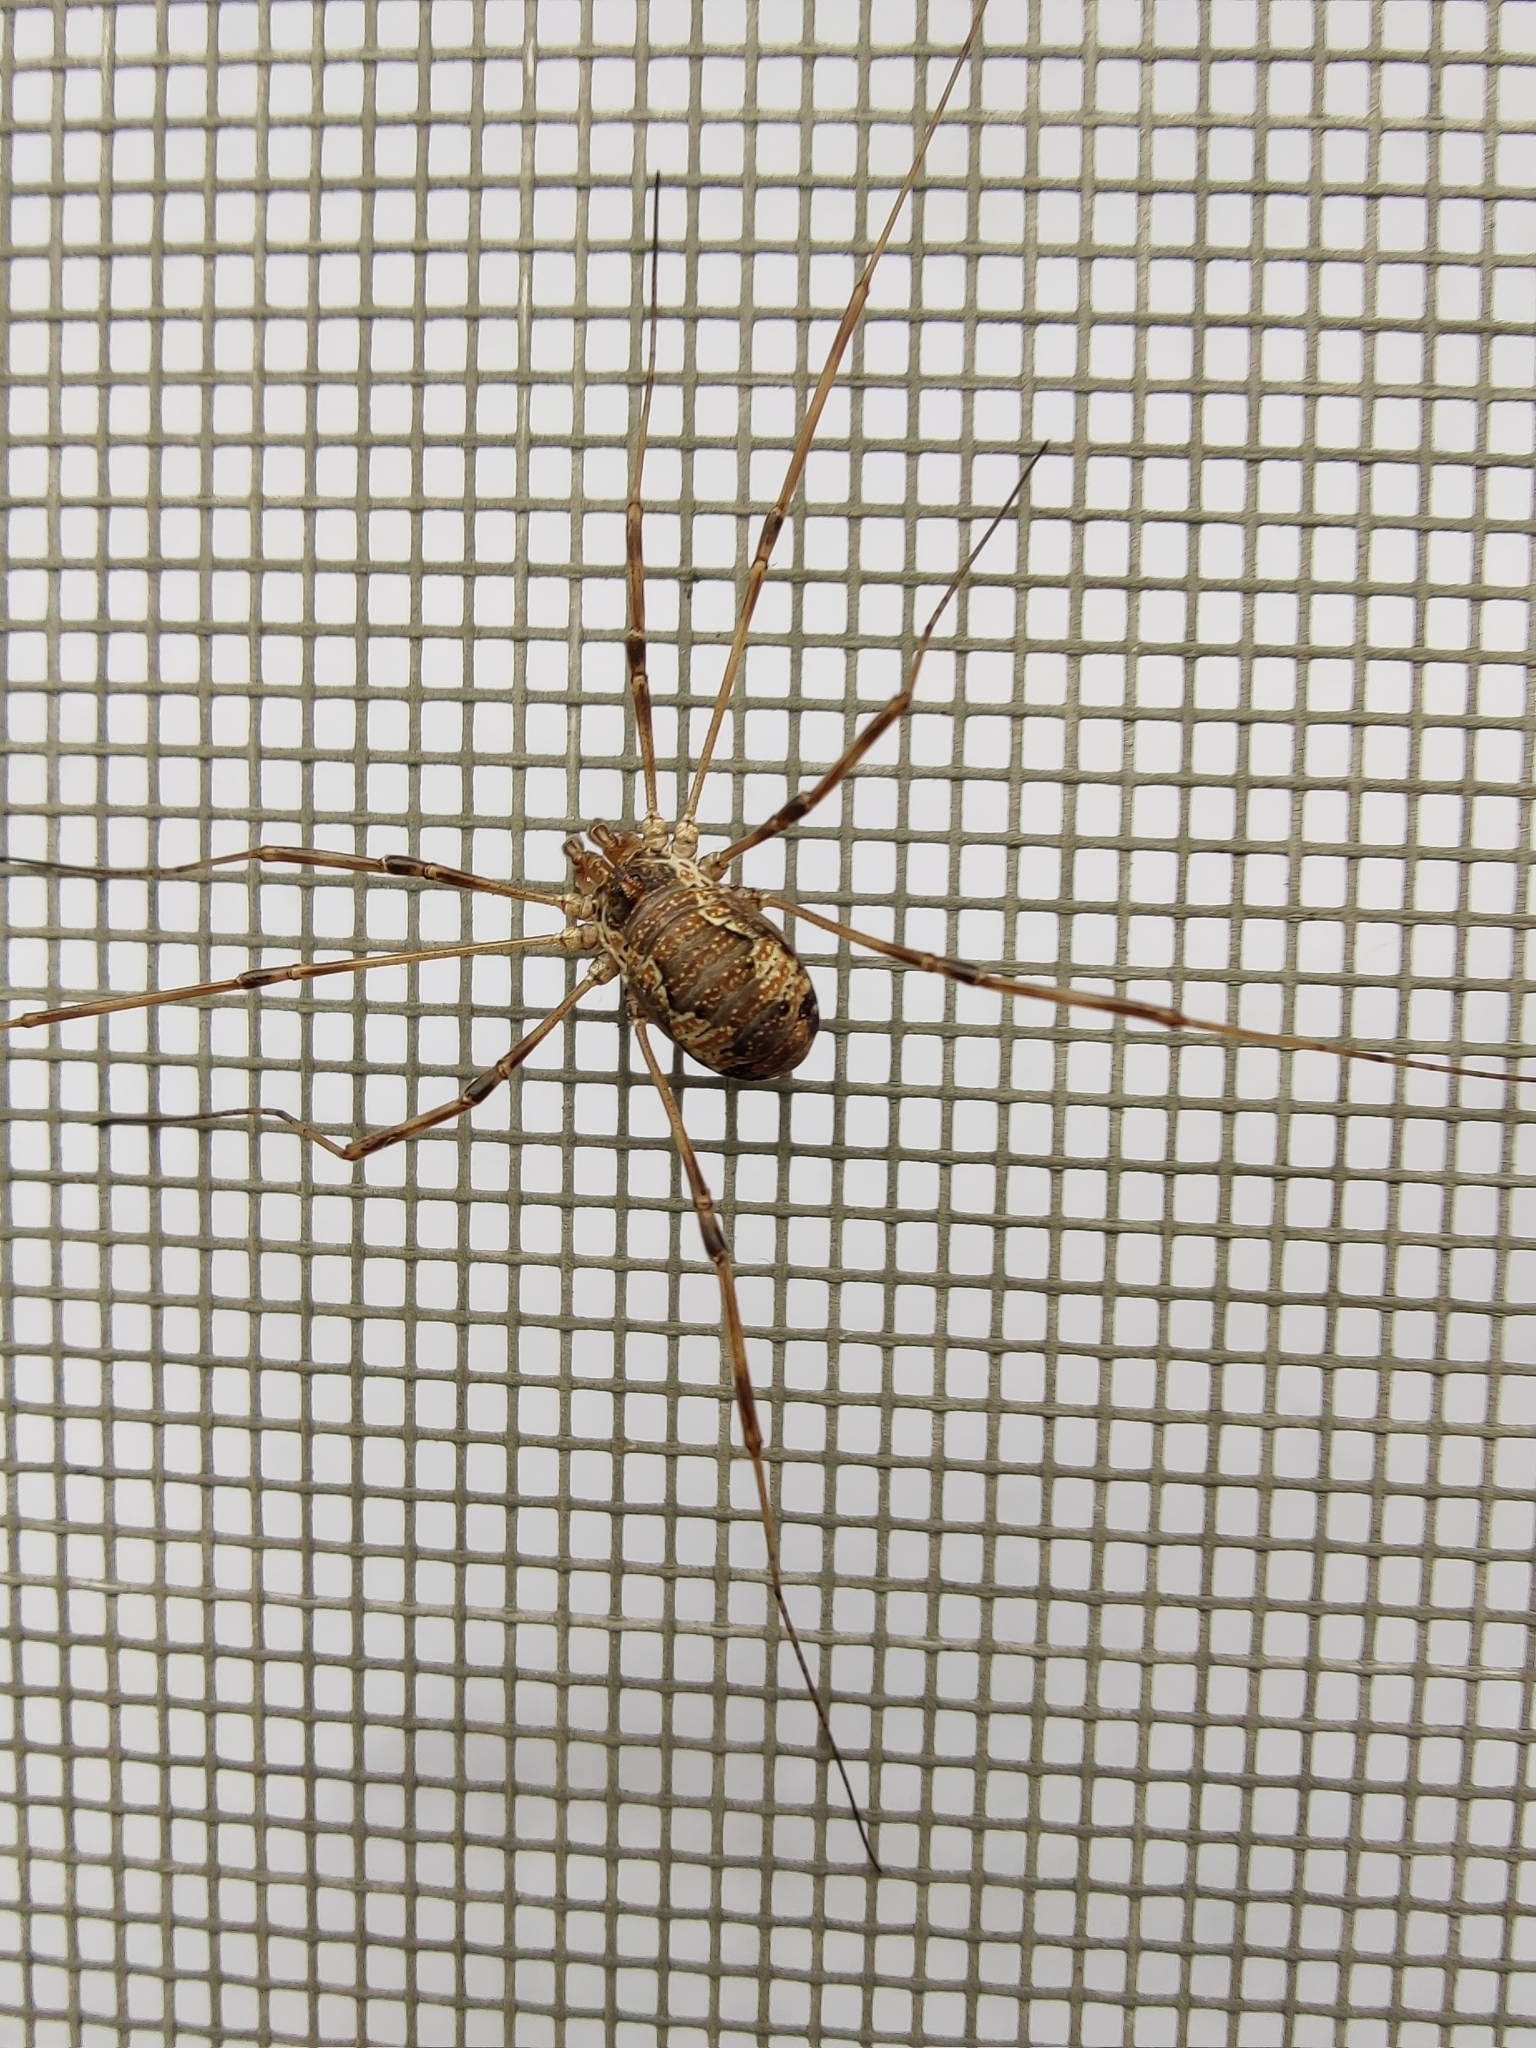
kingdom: Animalia
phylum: Arthropoda
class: Arachnida
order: Opiliones
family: Phalangiidae
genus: Dasylobus
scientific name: Dasylobus graniferus
